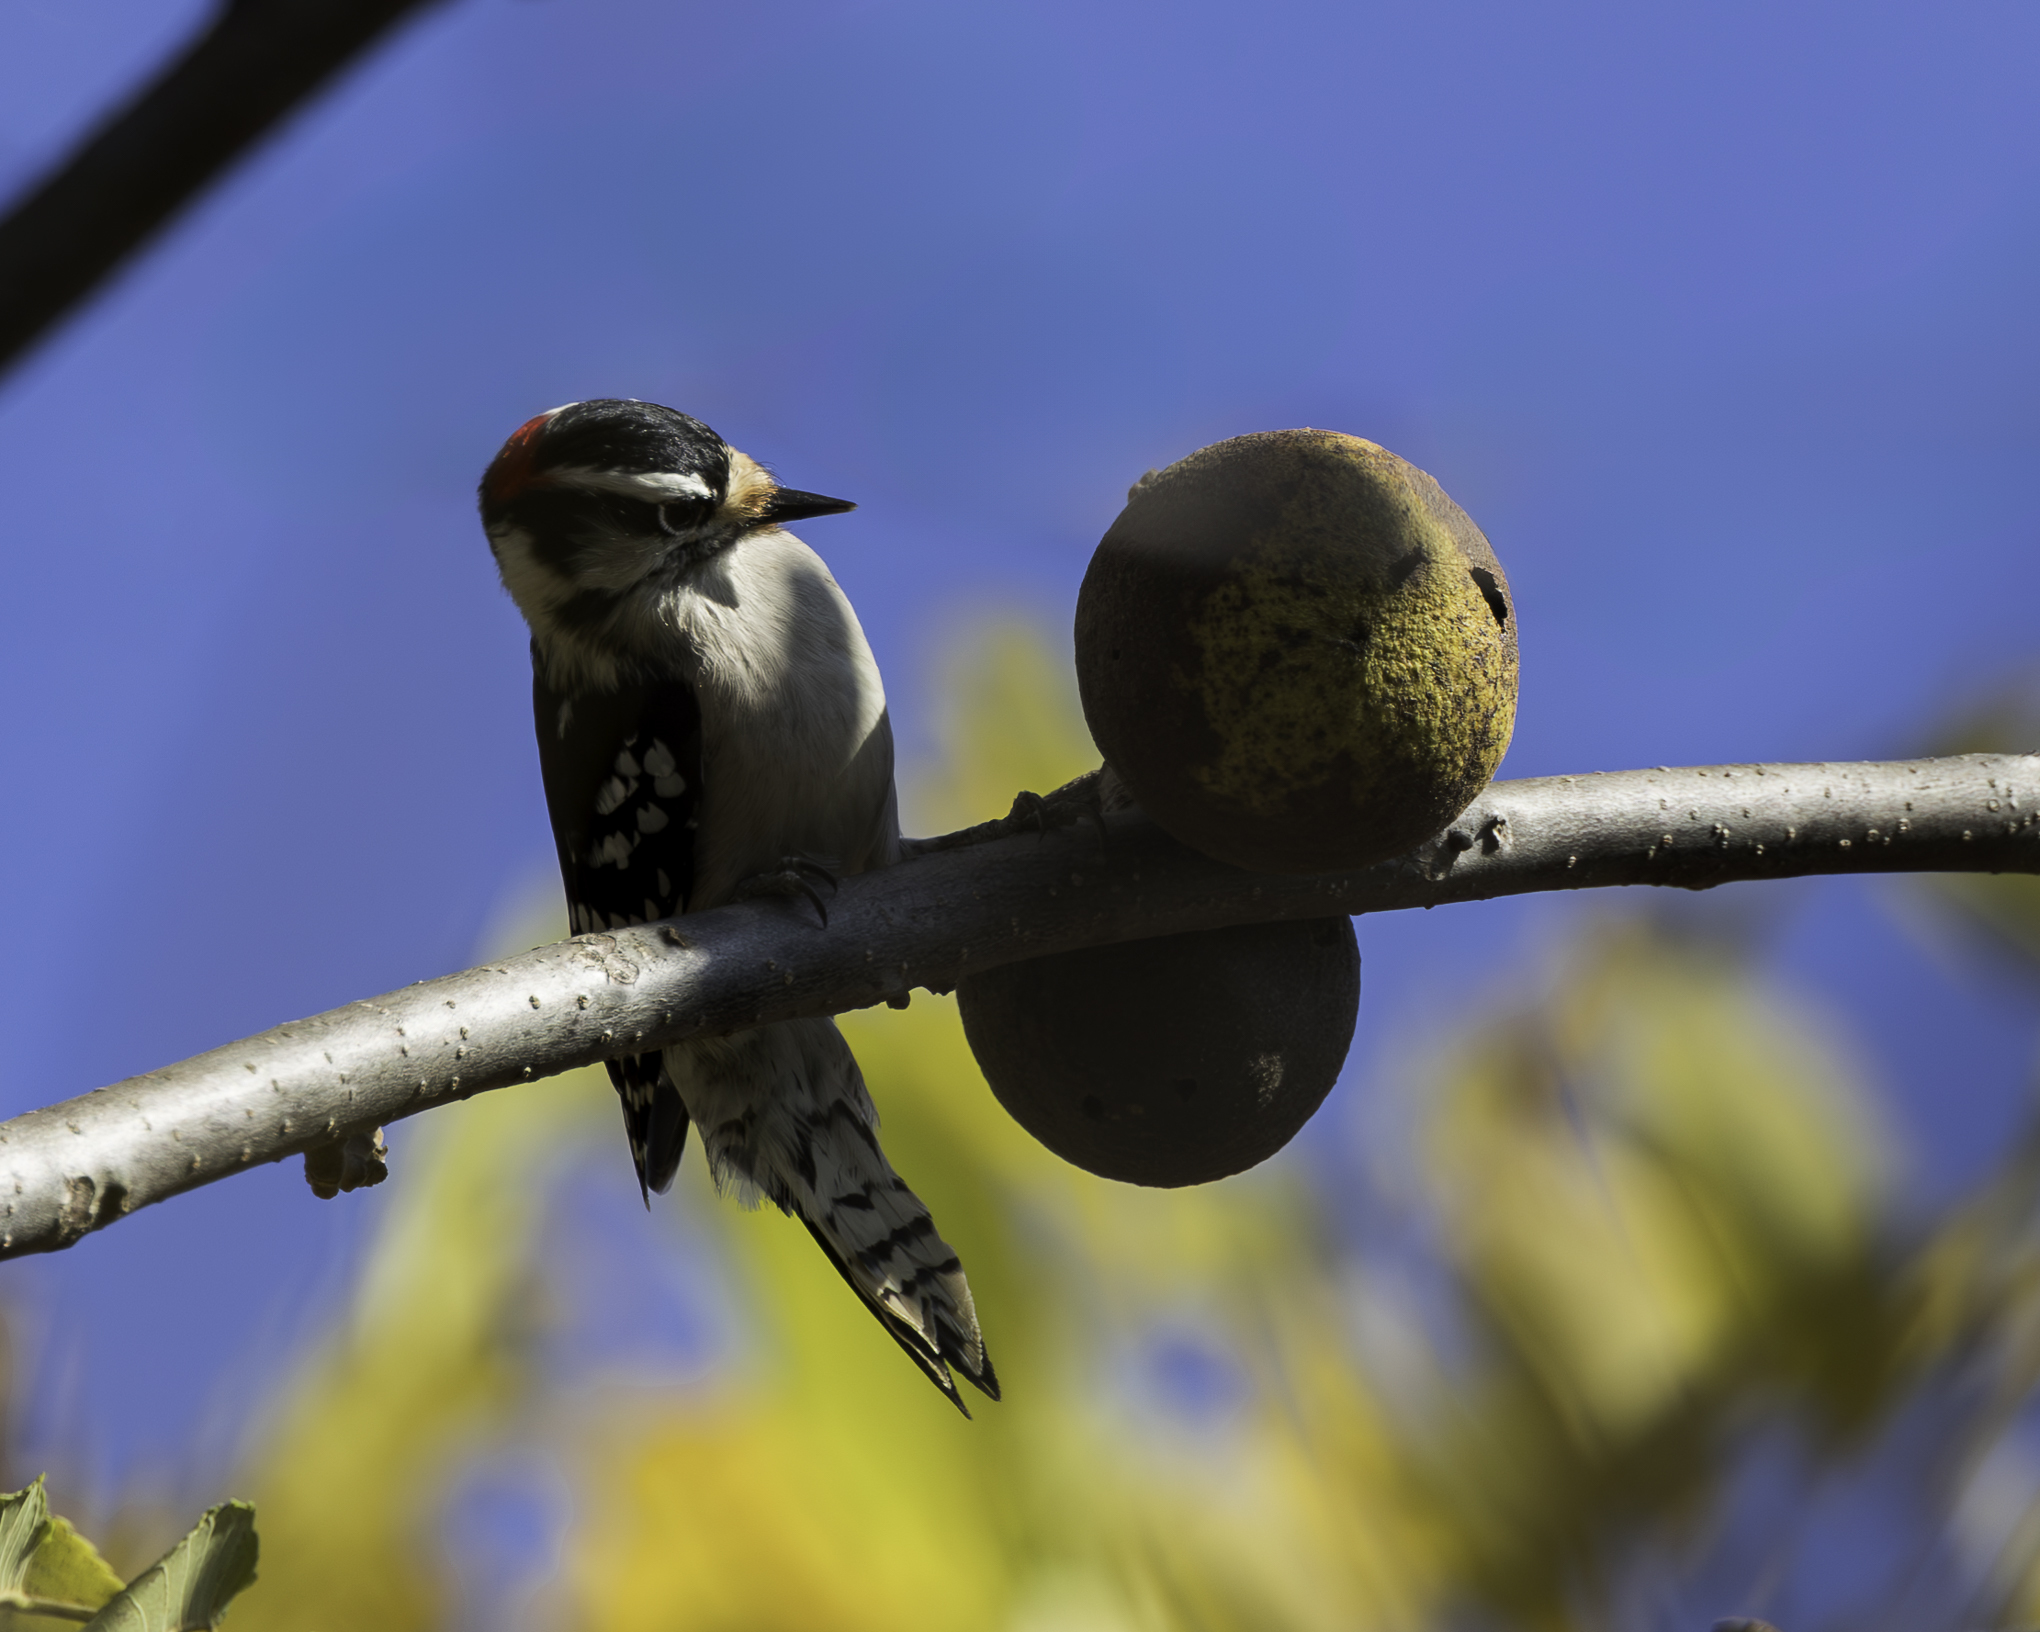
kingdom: Animalia
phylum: Chordata
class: Aves
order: Piciformes
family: Picidae
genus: Dryobates
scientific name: Dryobates pubescens
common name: Downy woodpecker
